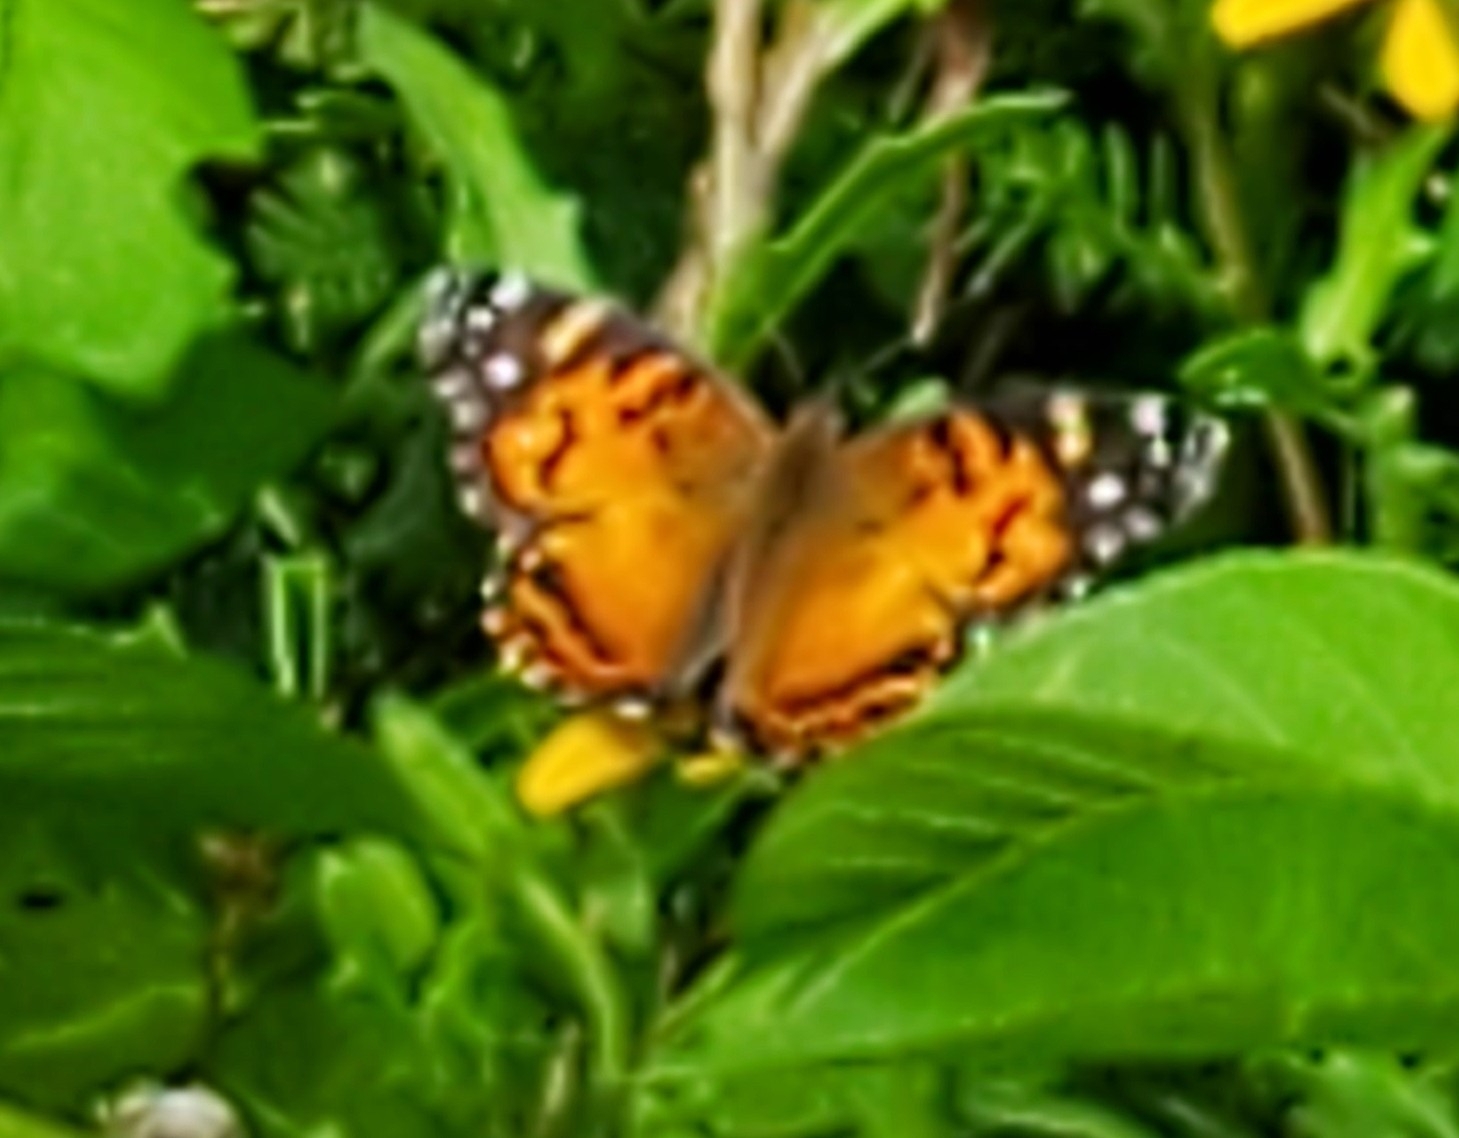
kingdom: Animalia
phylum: Arthropoda
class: Insecta
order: Lepidoptera
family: Nymphalidae
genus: Vanessa
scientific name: Vanessa virginiensis
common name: American lady
